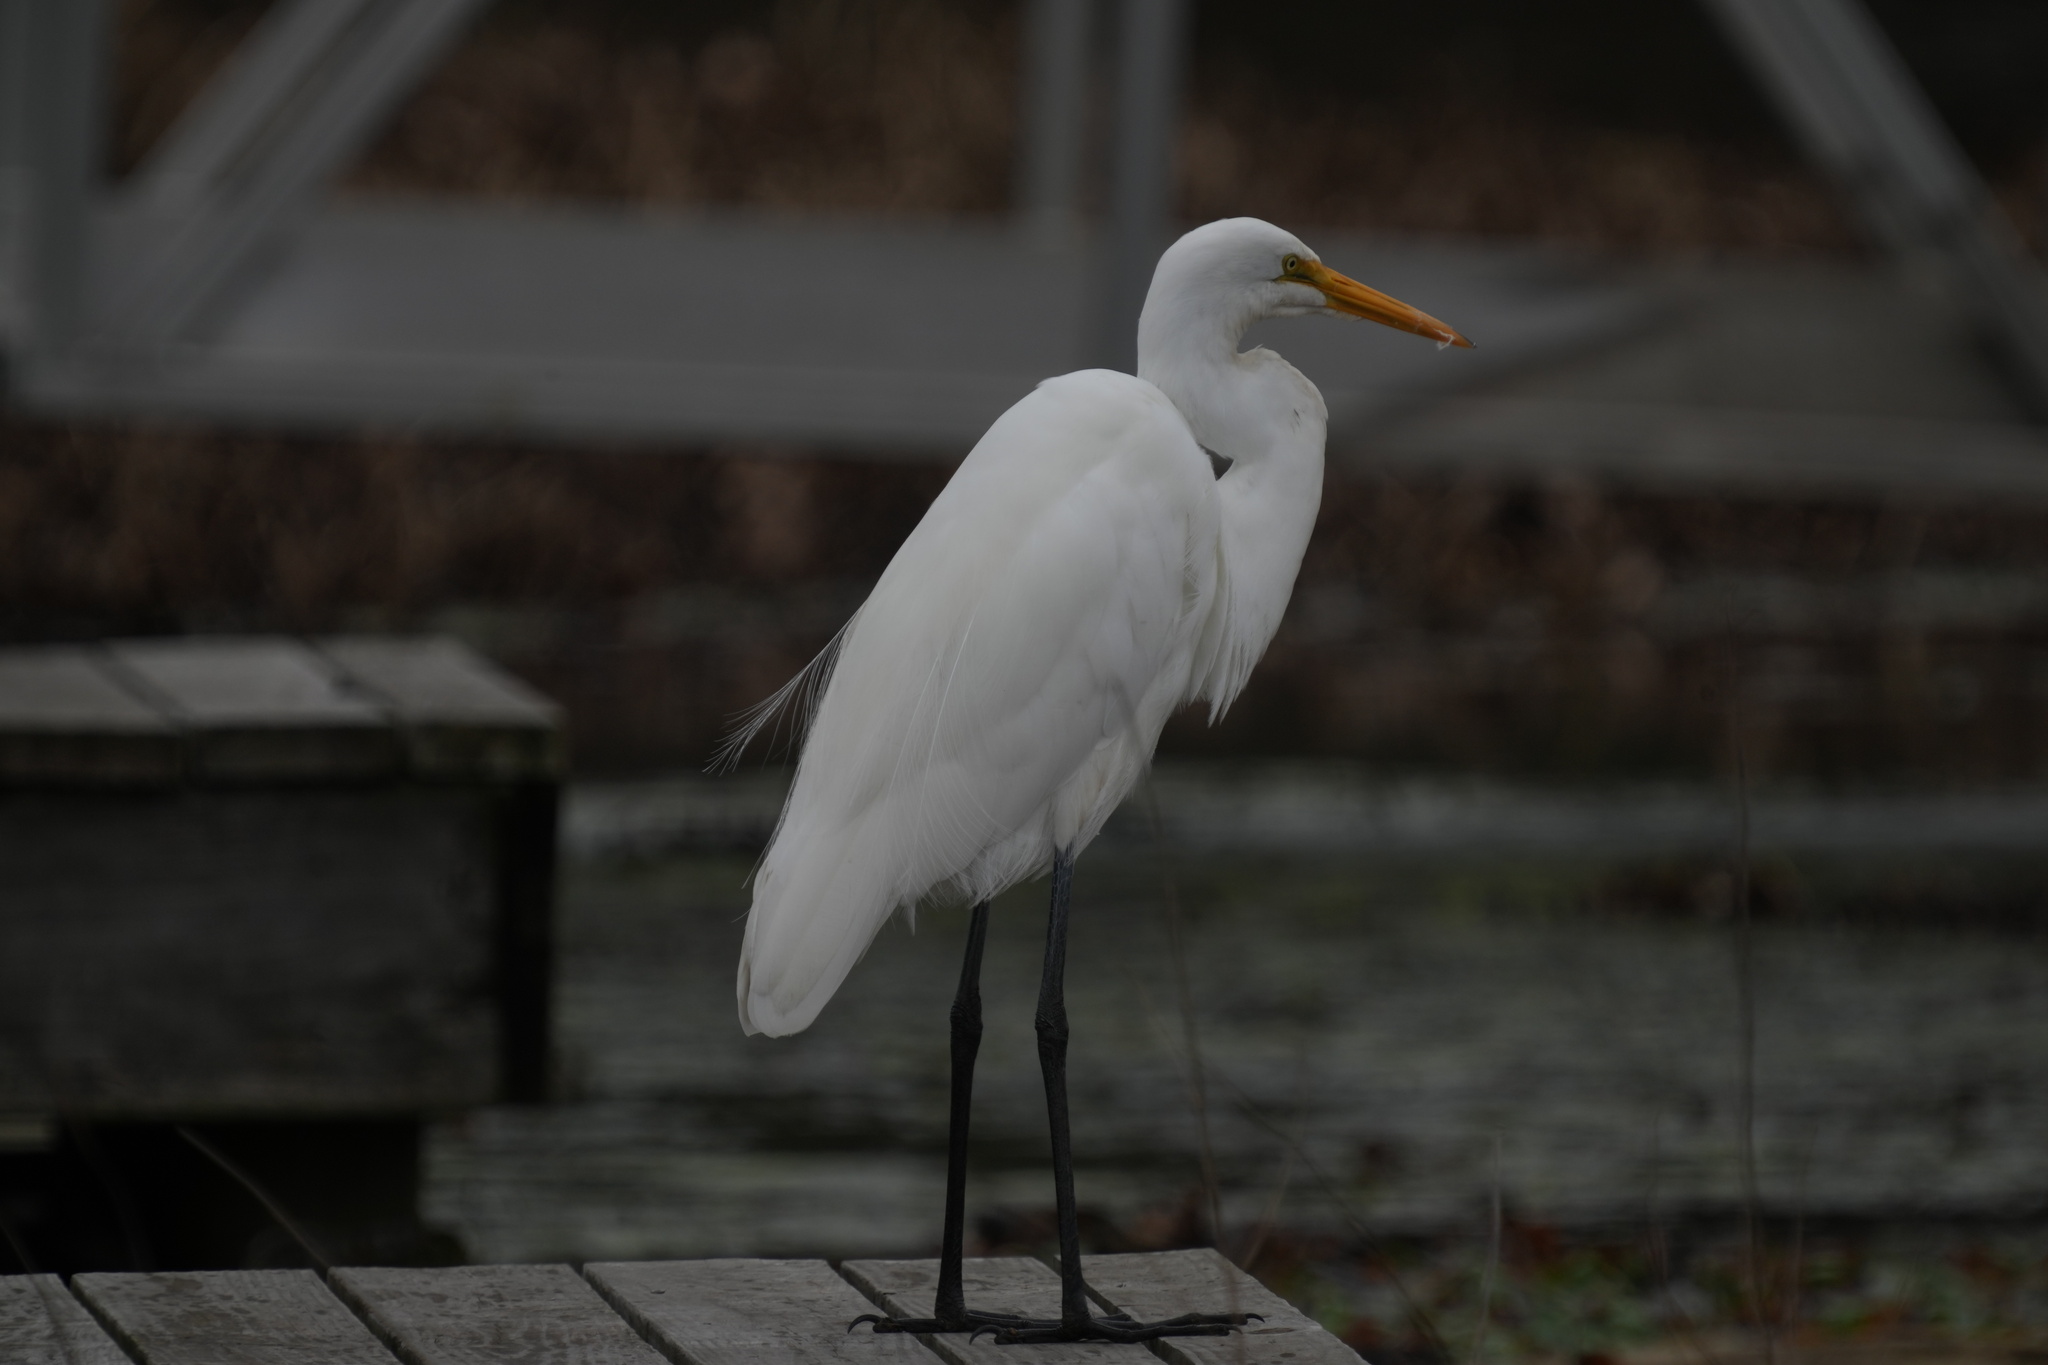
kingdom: Animalia
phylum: Chordata
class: Aves
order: Pelecaniformes
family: Ardeidae
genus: Ardea
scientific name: Ardea alba
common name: Great egret
